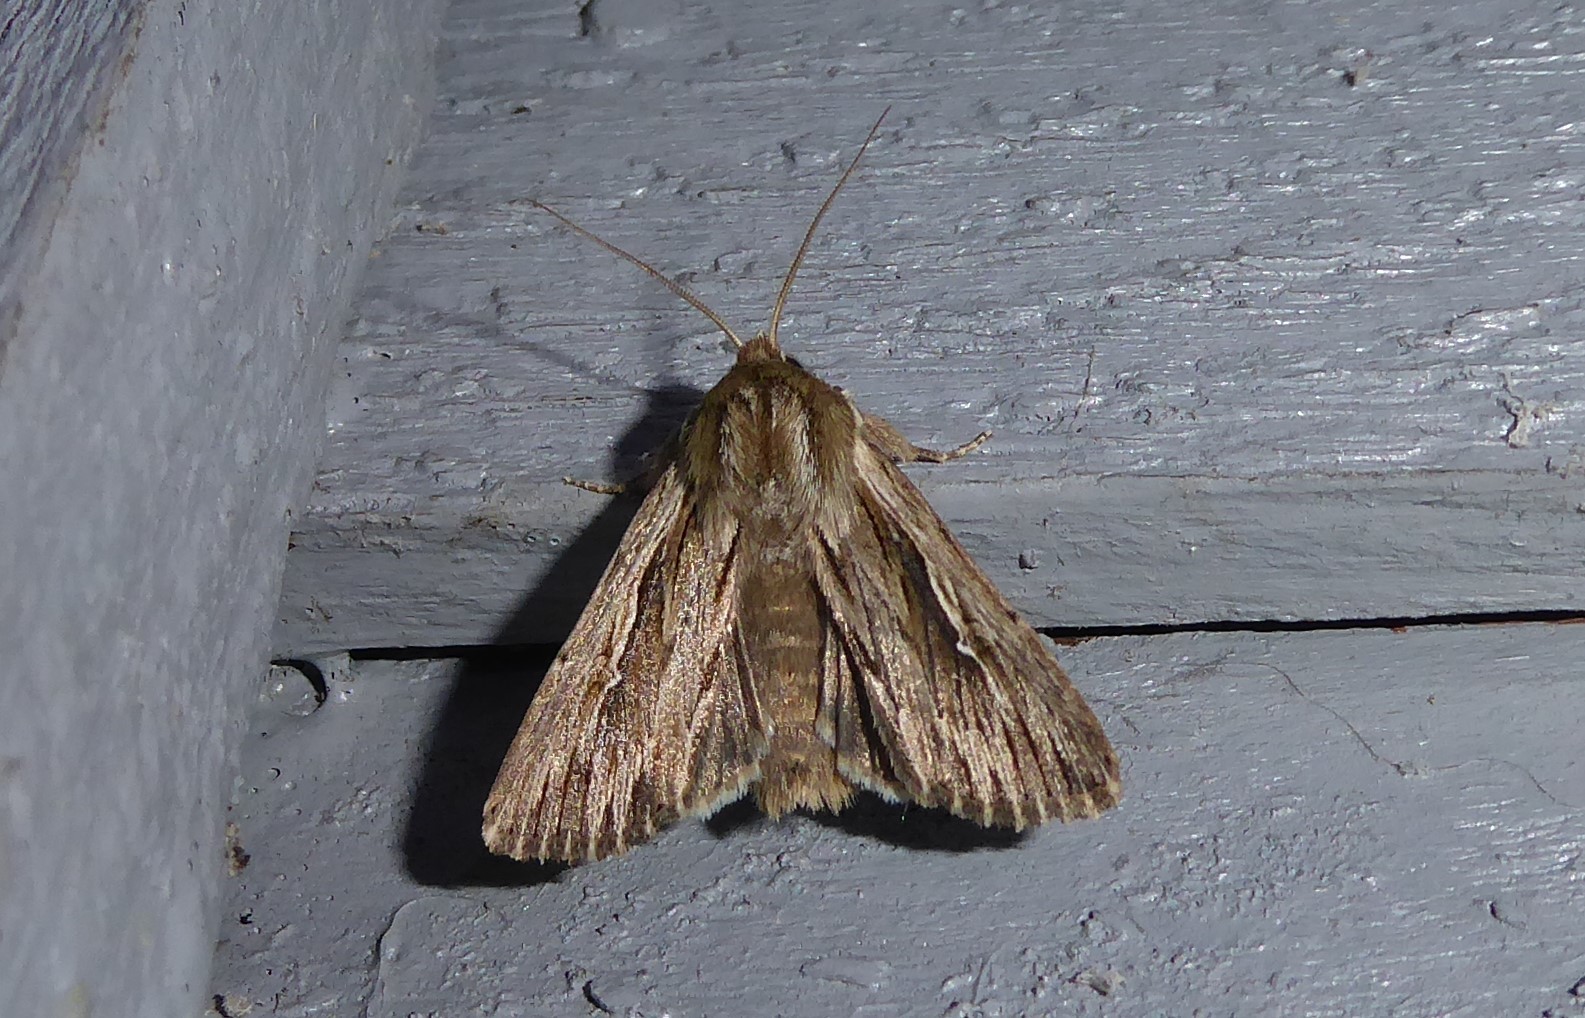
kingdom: Animalia
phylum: Arthropoda
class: Insecta
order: Lepidoptera
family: Noctuidae
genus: Persectania
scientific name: Persectania aversa
